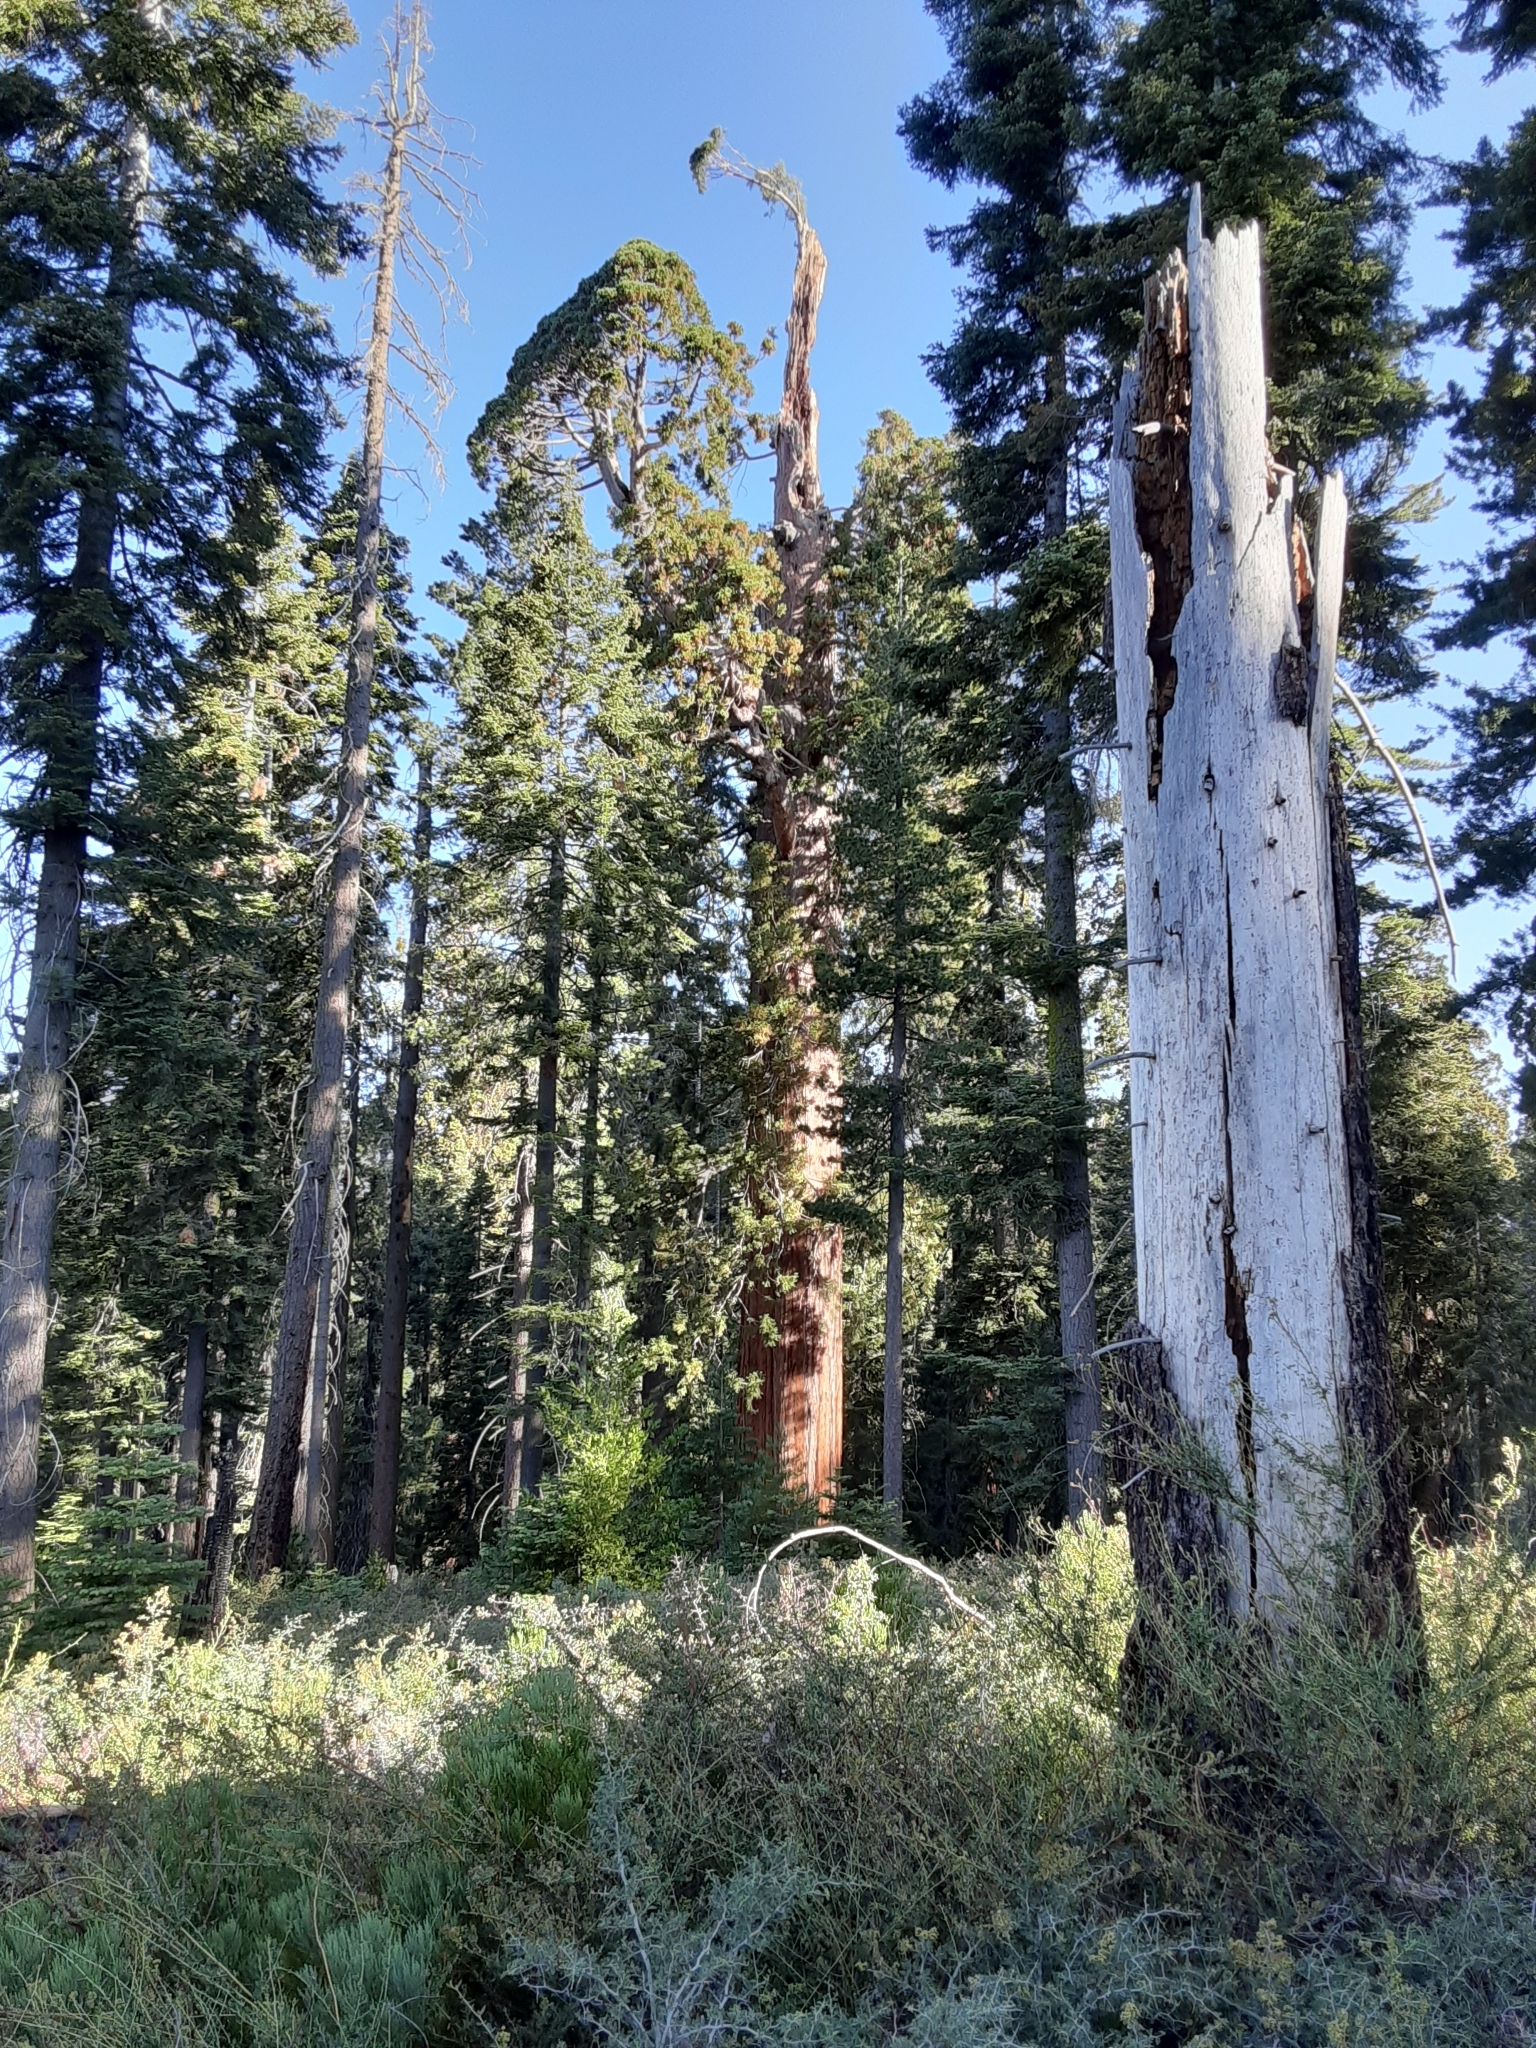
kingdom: Plantae
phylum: Tracheophyta
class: Pinopsida
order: Pinales
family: Cupressaceae
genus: Sequoiadendron
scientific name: Sequoiadendron giganteum
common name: Wellingtonia
